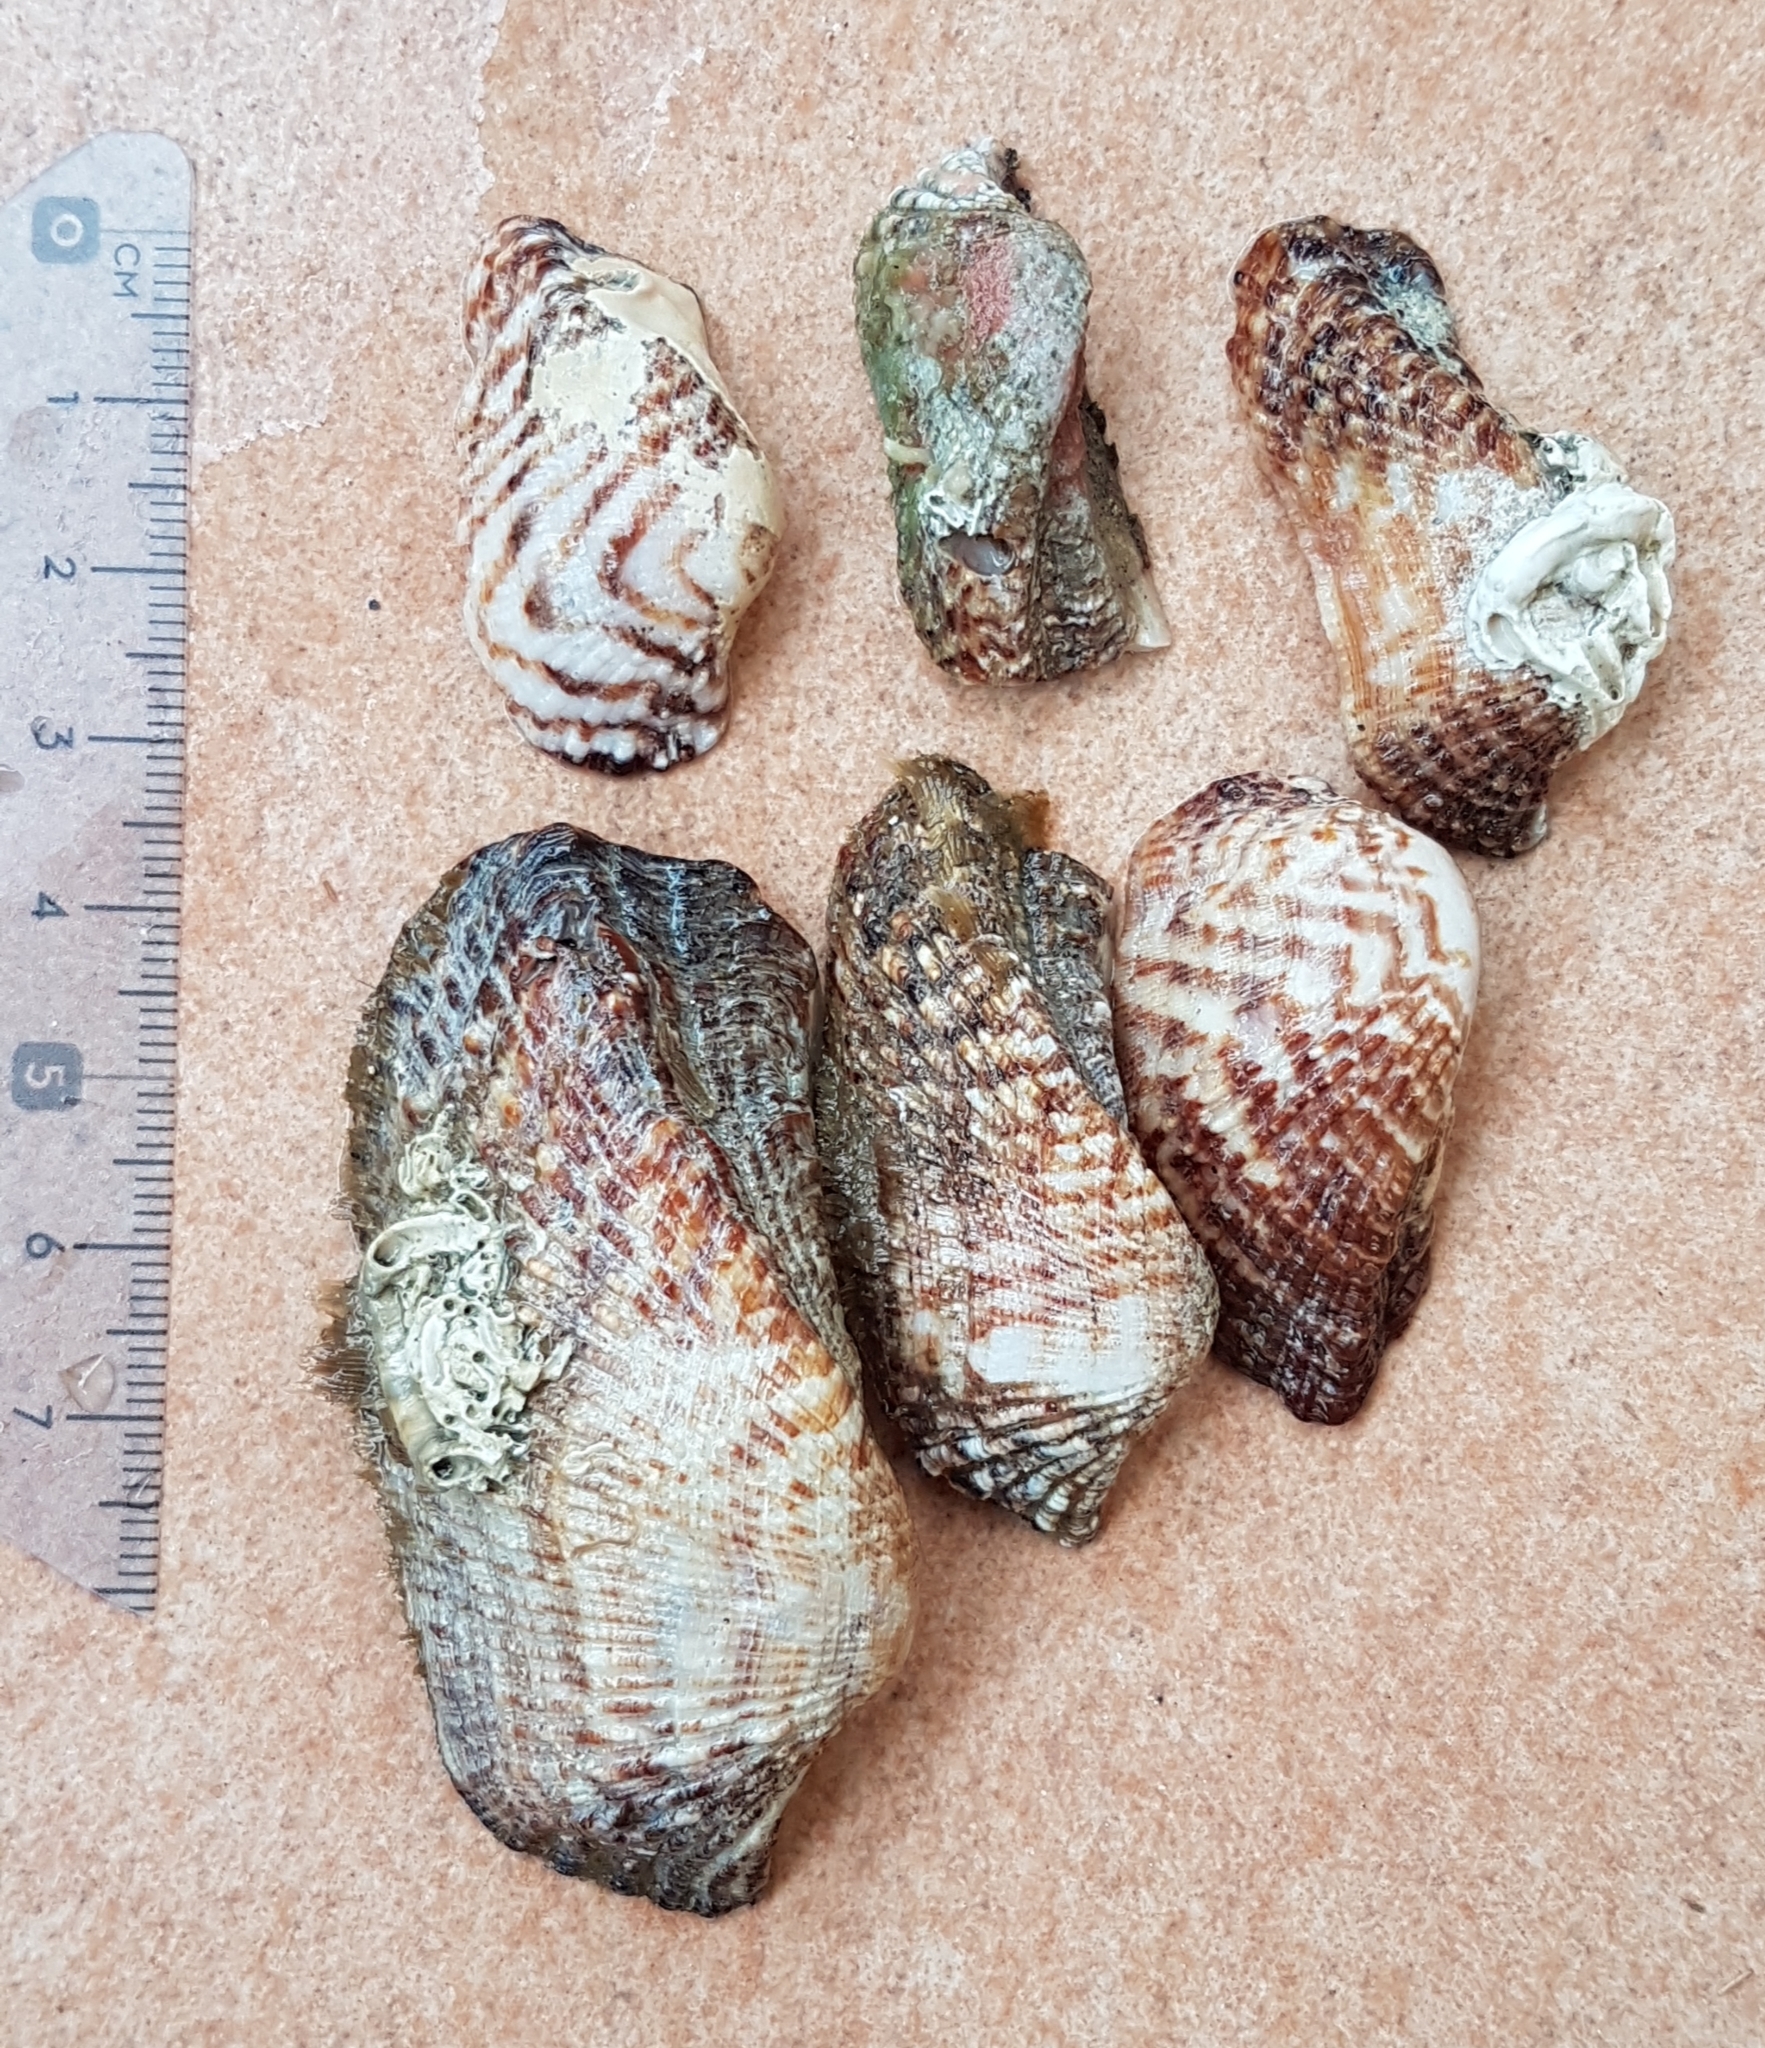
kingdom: Animalia
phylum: Mollusca
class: Bivalvia
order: Arcida
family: Arcidae
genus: Arca
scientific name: Arca noae
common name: Noah's arch
